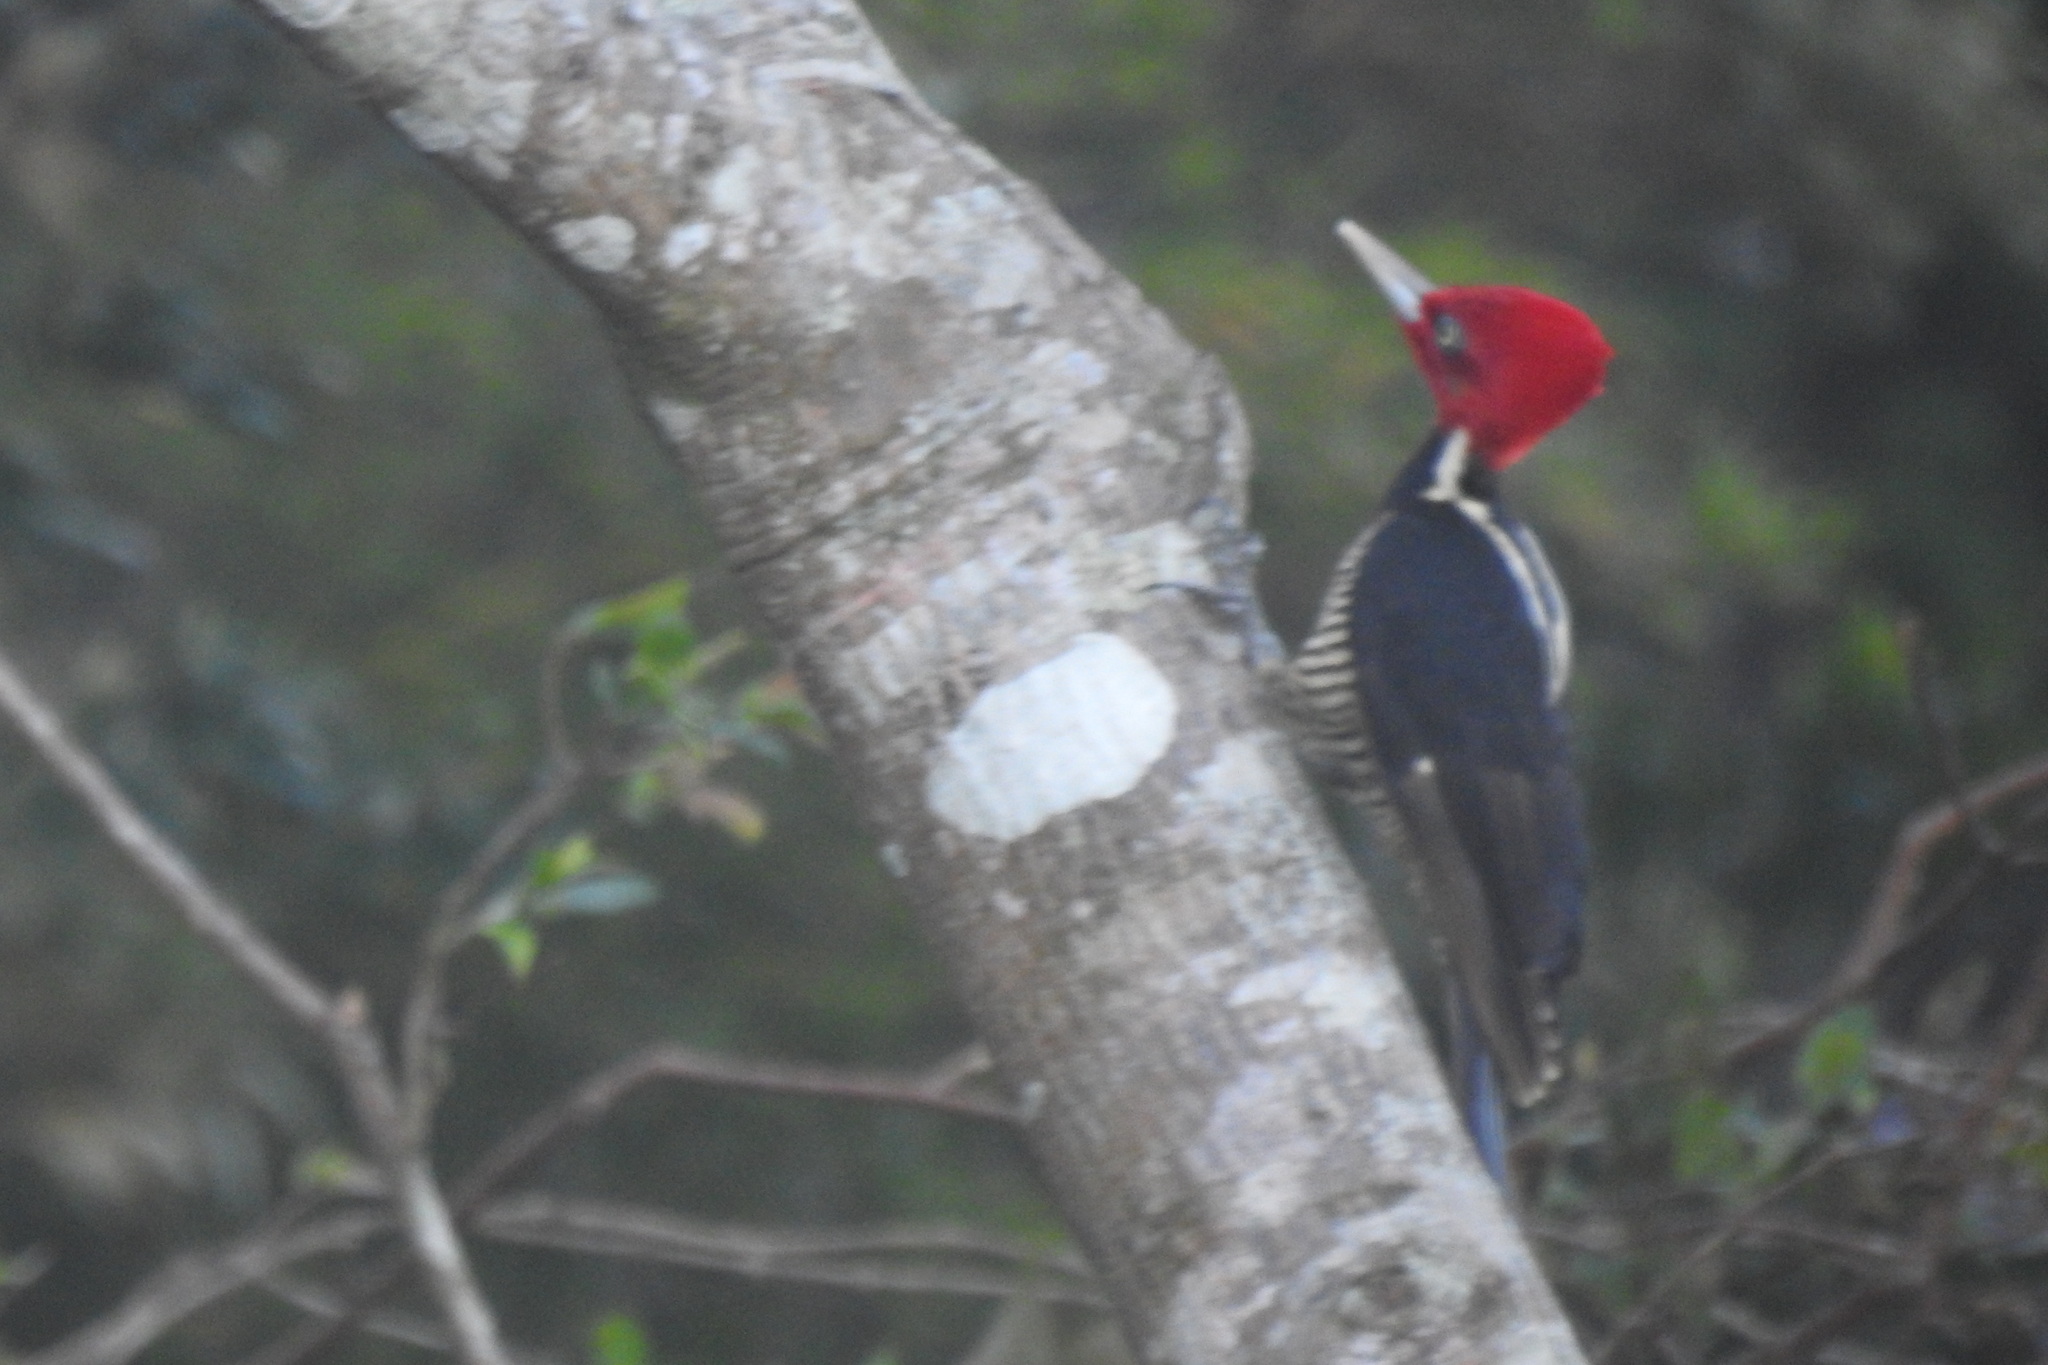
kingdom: Animalia
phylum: Chordata
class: Aves
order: Piciformes
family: Picidae
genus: Campephilus
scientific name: Campephilus guatemalensis
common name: Pale-billed woodpecker
